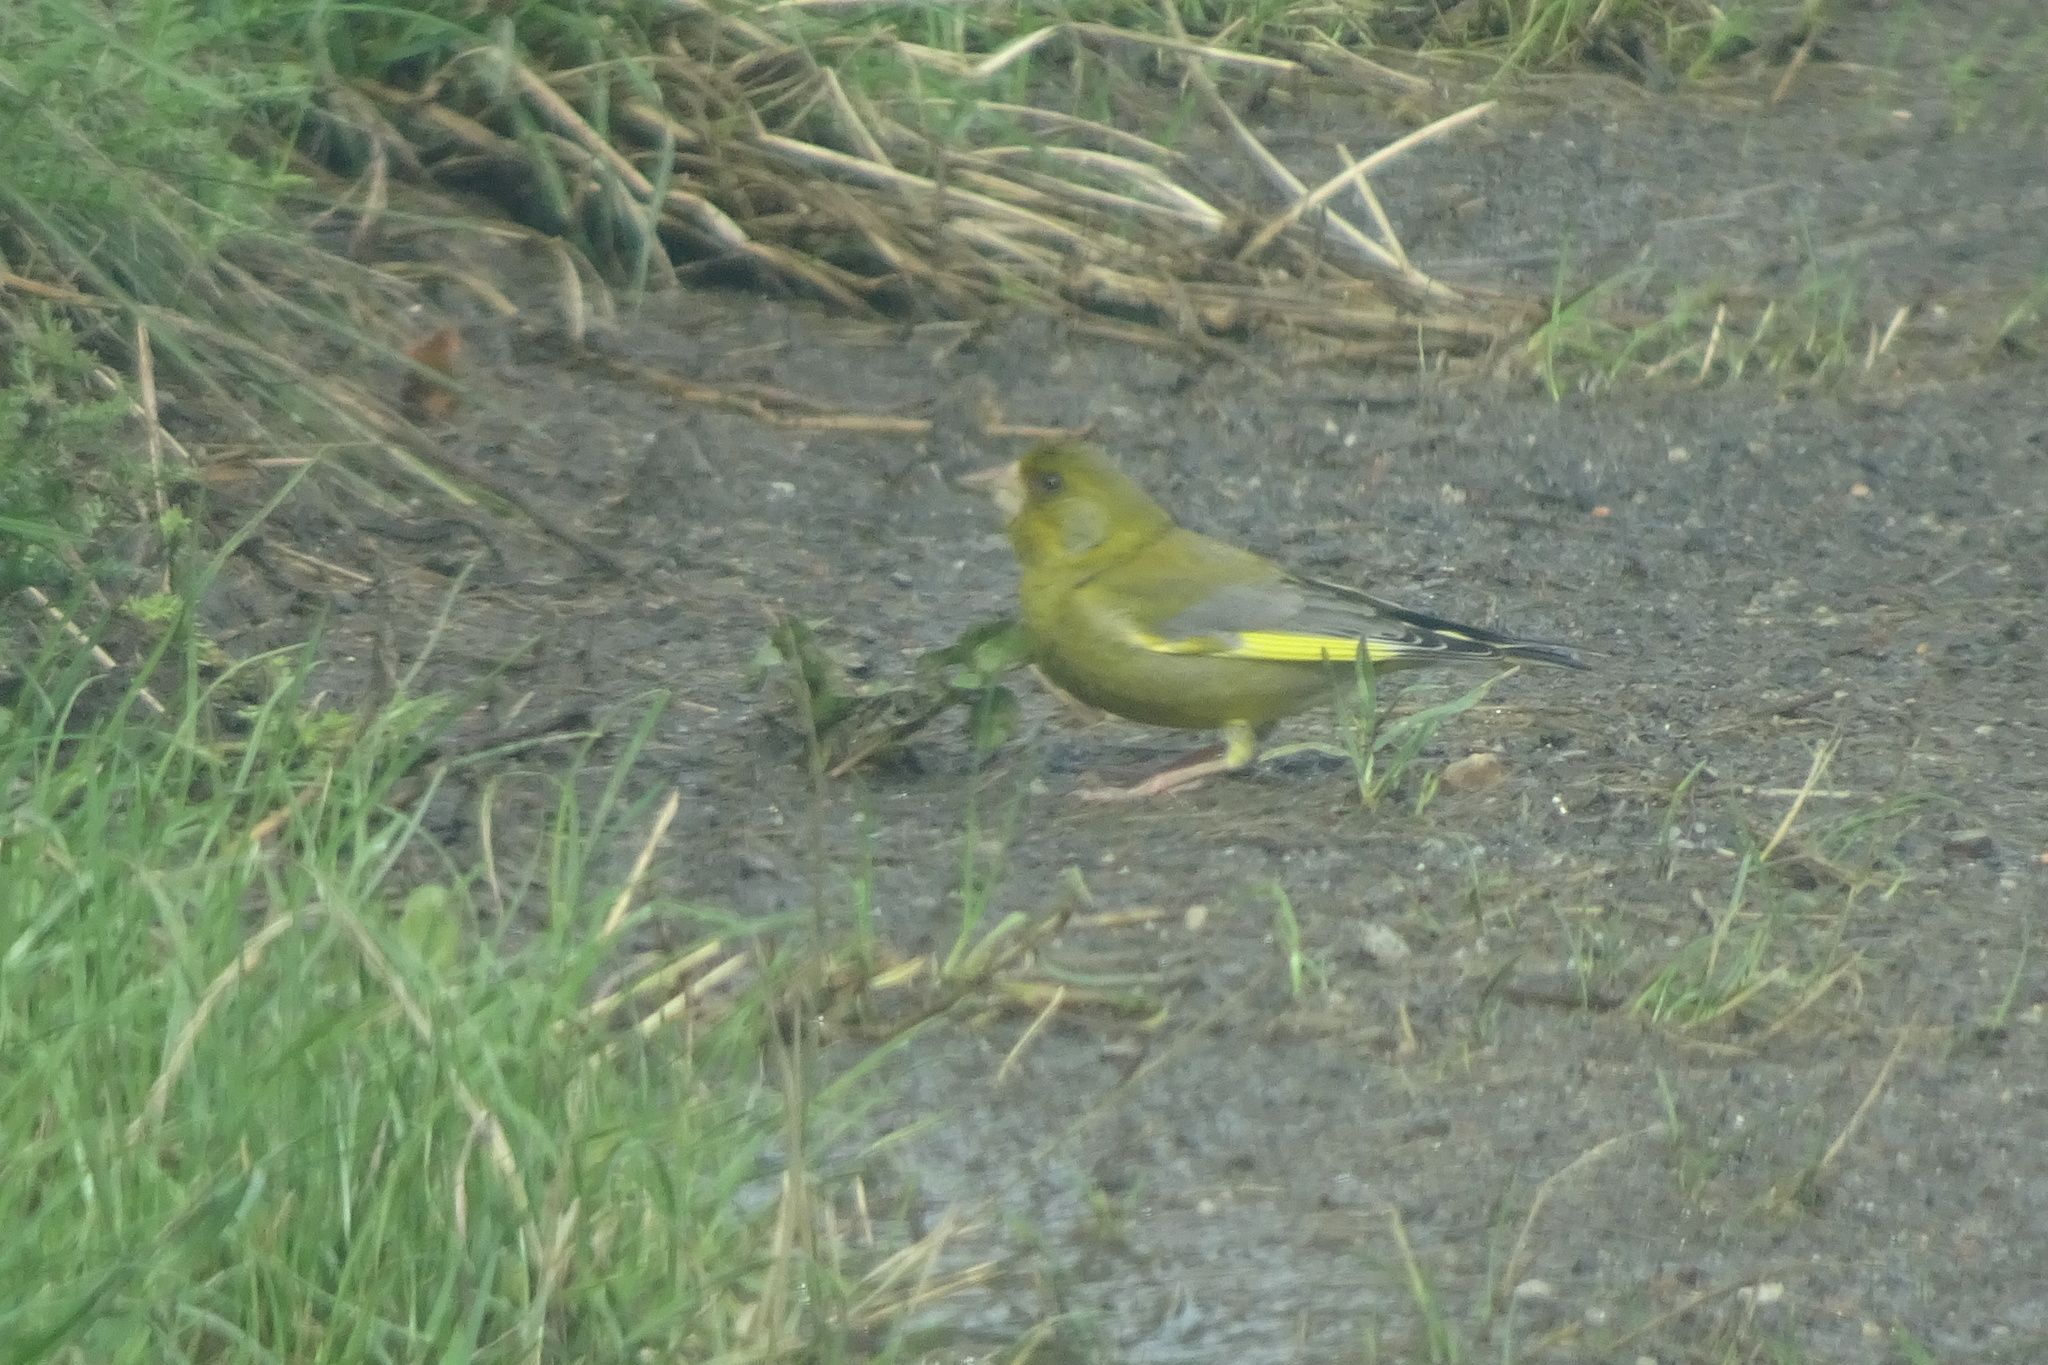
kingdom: Plantae
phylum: Tracheophyta
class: Liliopsida
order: Poales
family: Poaceae
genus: Chloris
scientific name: Chloris chloris
